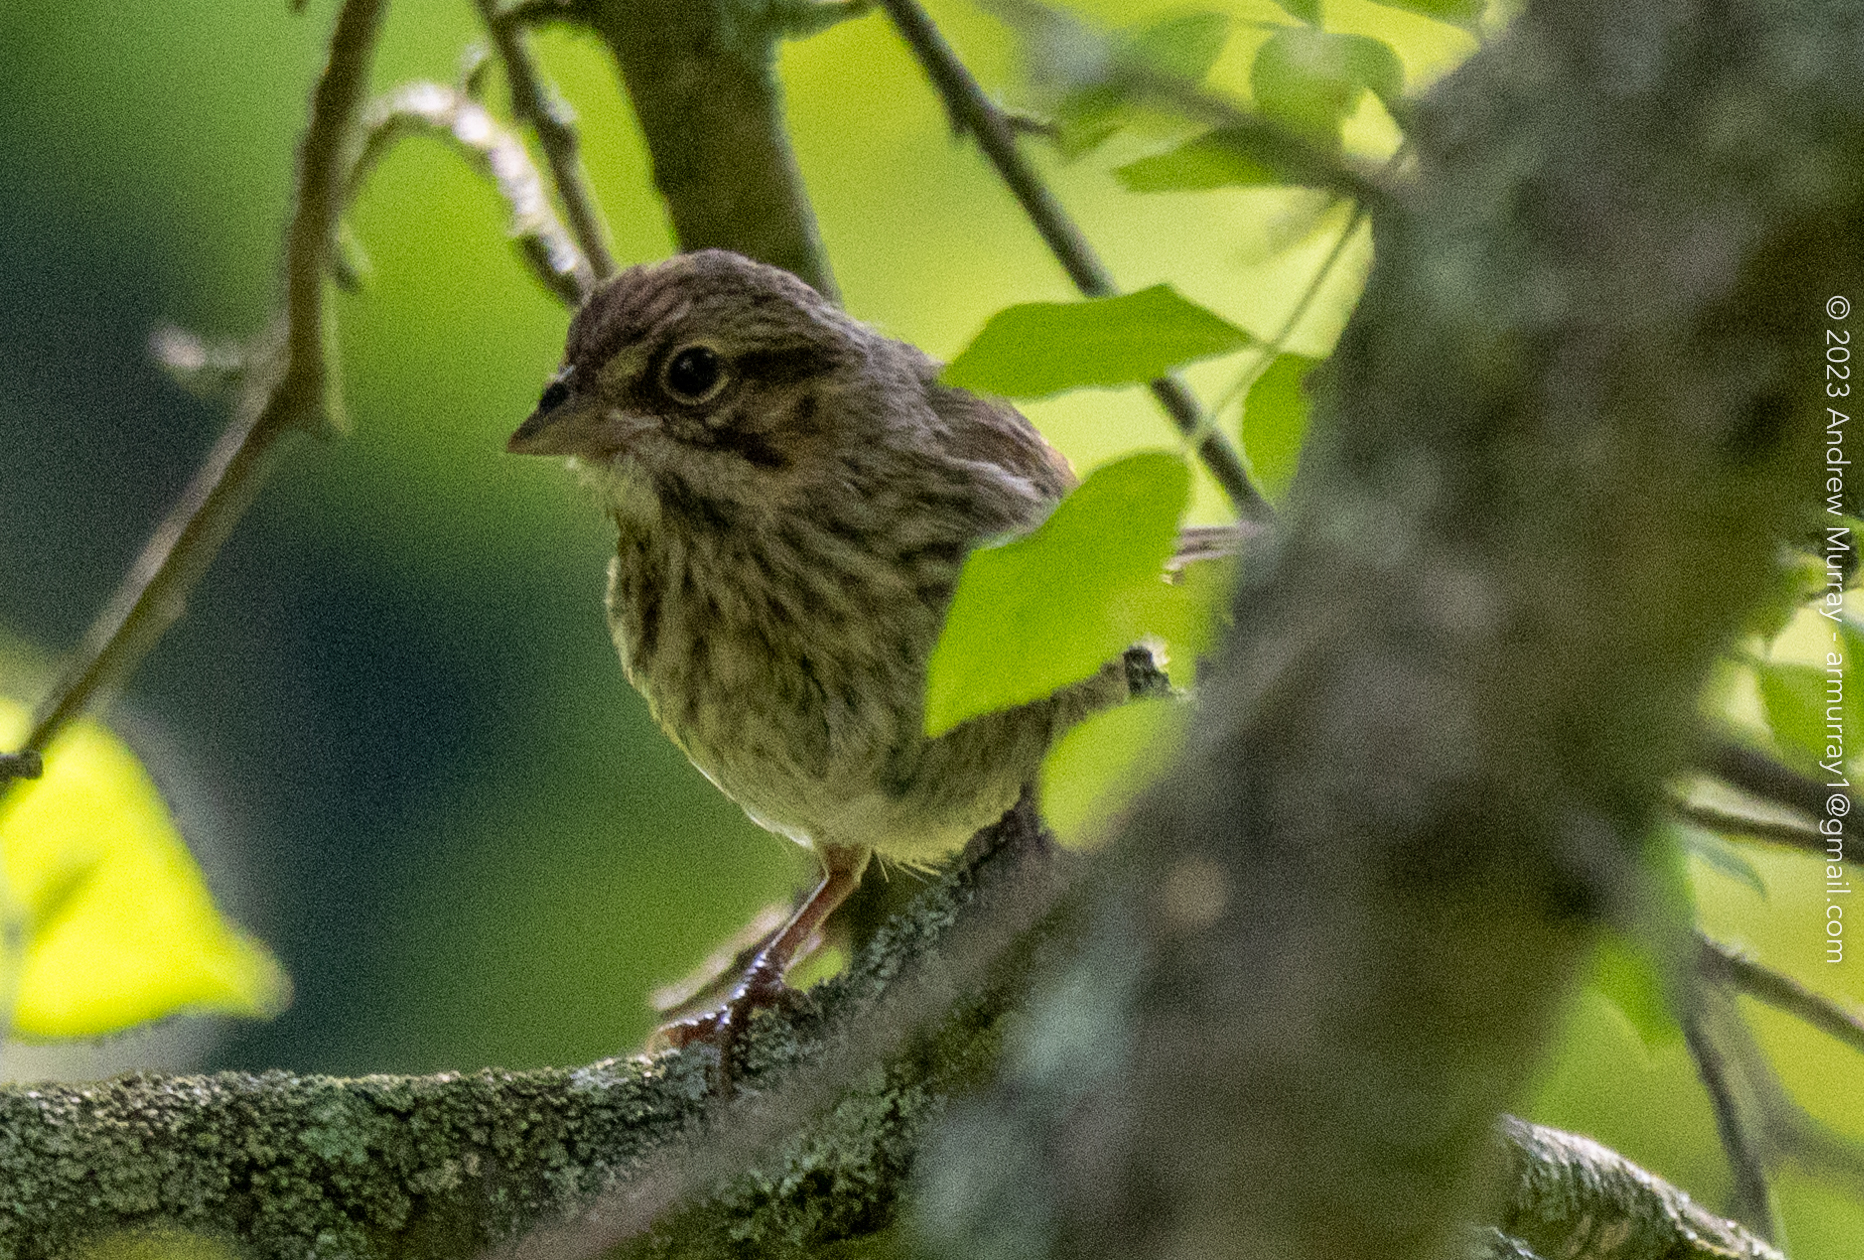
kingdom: Animalia
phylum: Chordata
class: Aves
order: Passeriformes
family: Passerellidae
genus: Melospiza
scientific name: Melospiza georgiana
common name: Swamp sparrow
